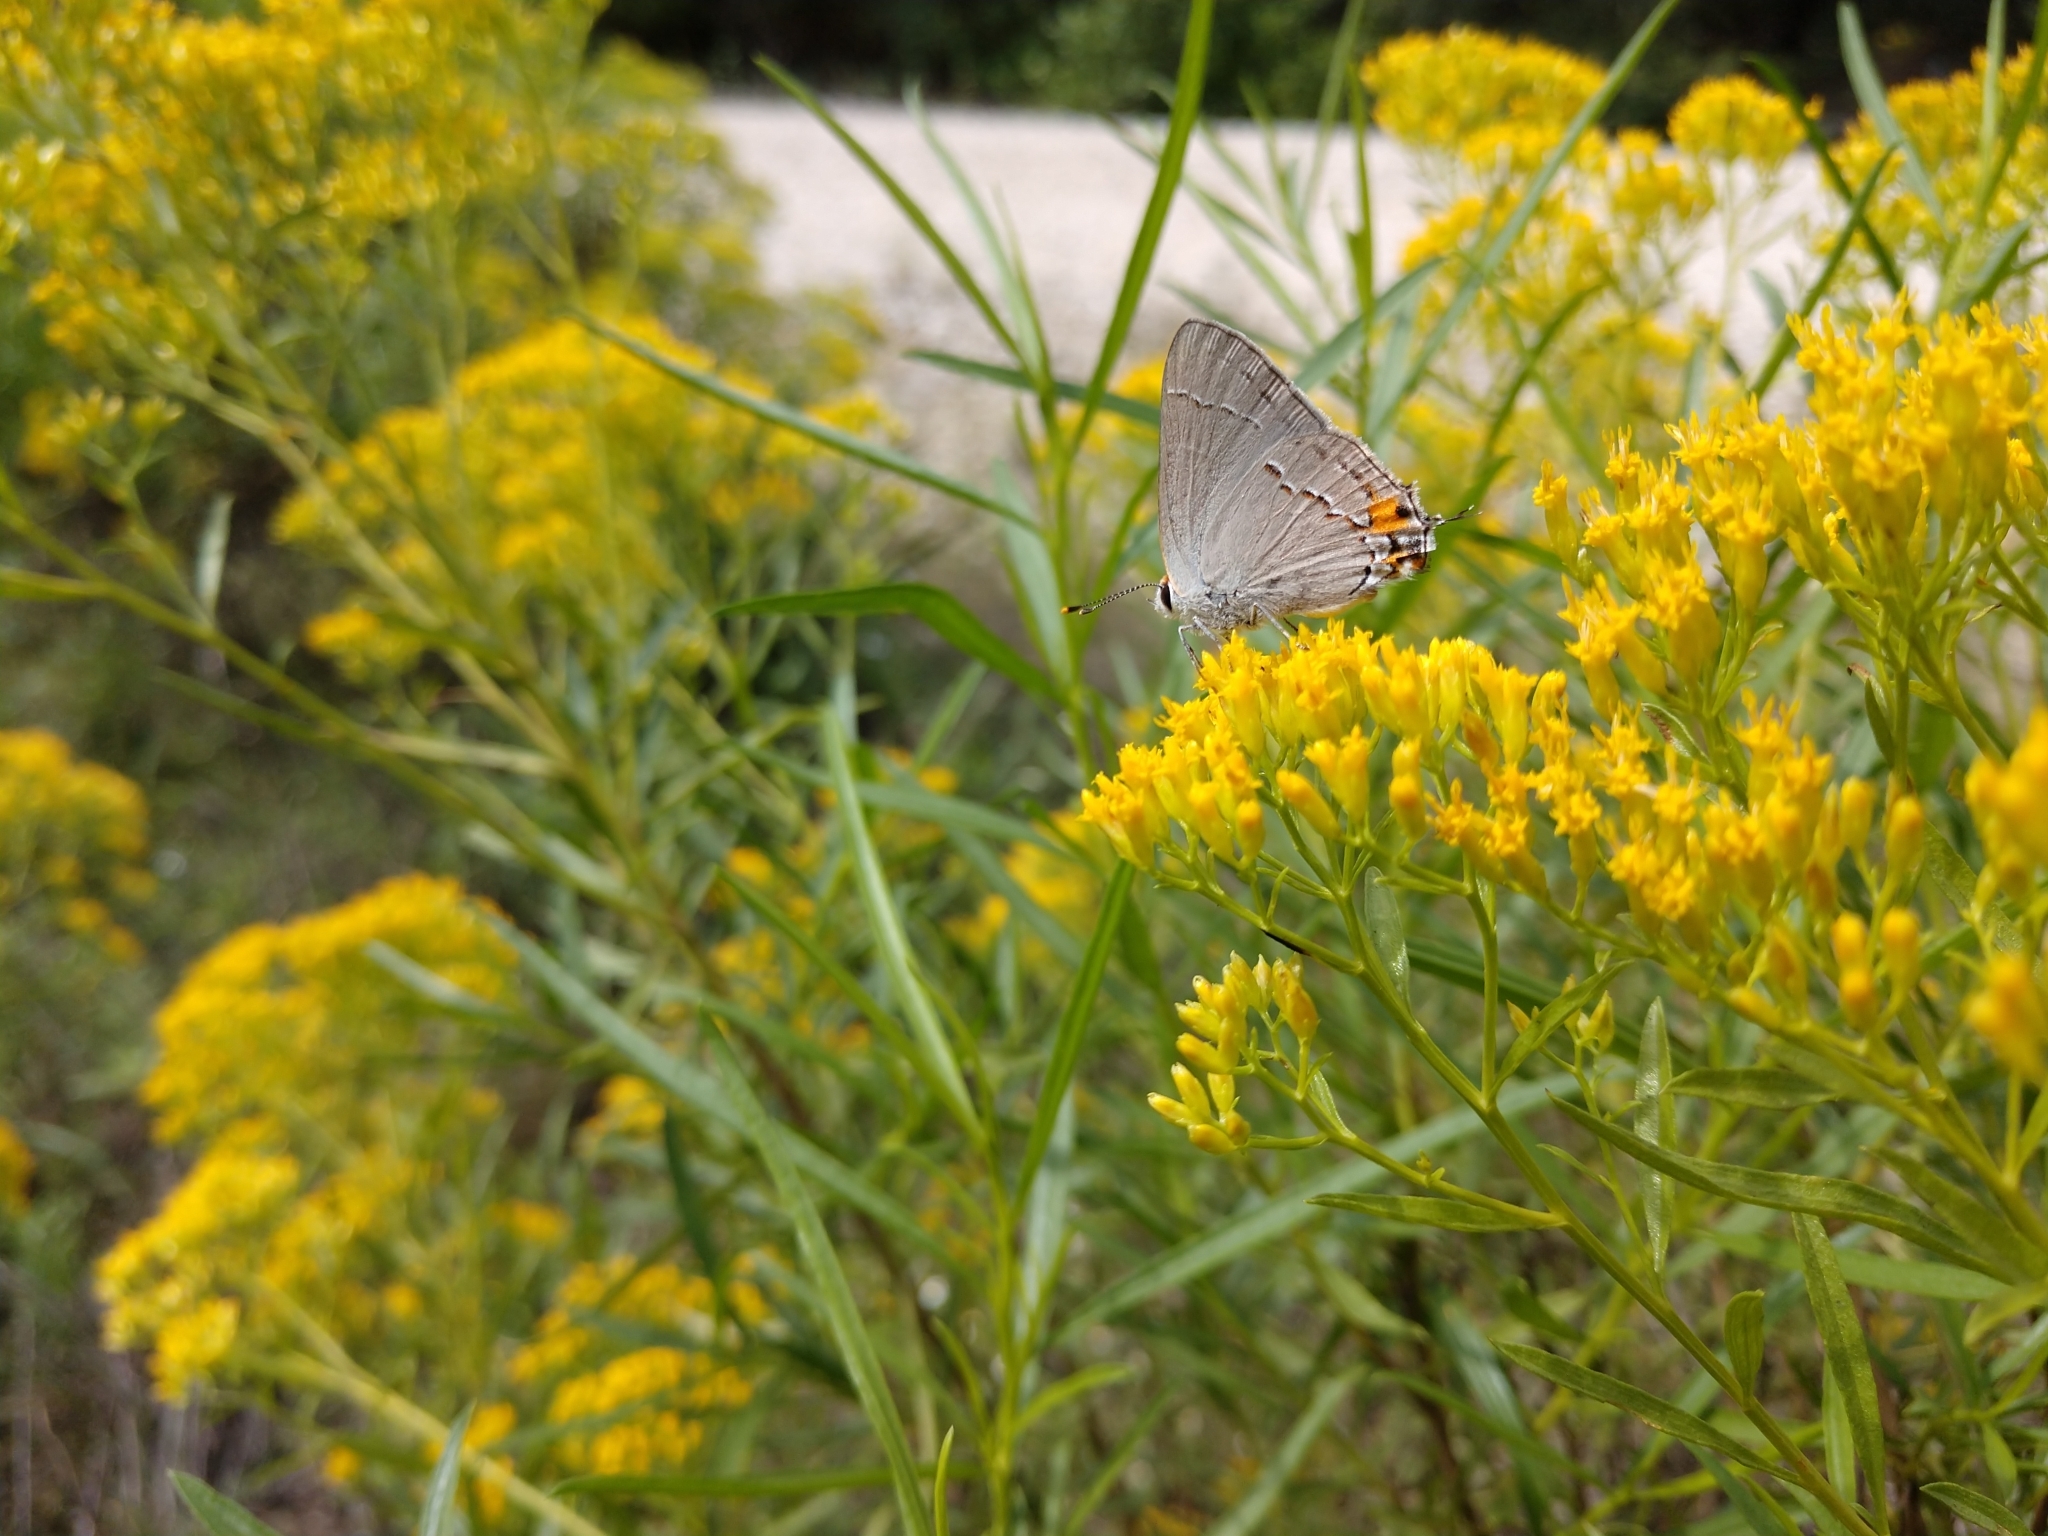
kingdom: Animalia
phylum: Arthropoda
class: Insecta
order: Lepidoptera
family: Lycaenidae
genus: Strymon
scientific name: Strymon melinus
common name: Gray hairstreak
